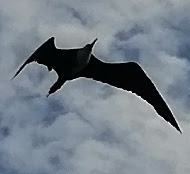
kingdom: Animalia
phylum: Chordata
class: Aves
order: Suliformes
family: Fregatidae
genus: Fregata
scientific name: Fregata magnificens
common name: Magnificent frigatebird
